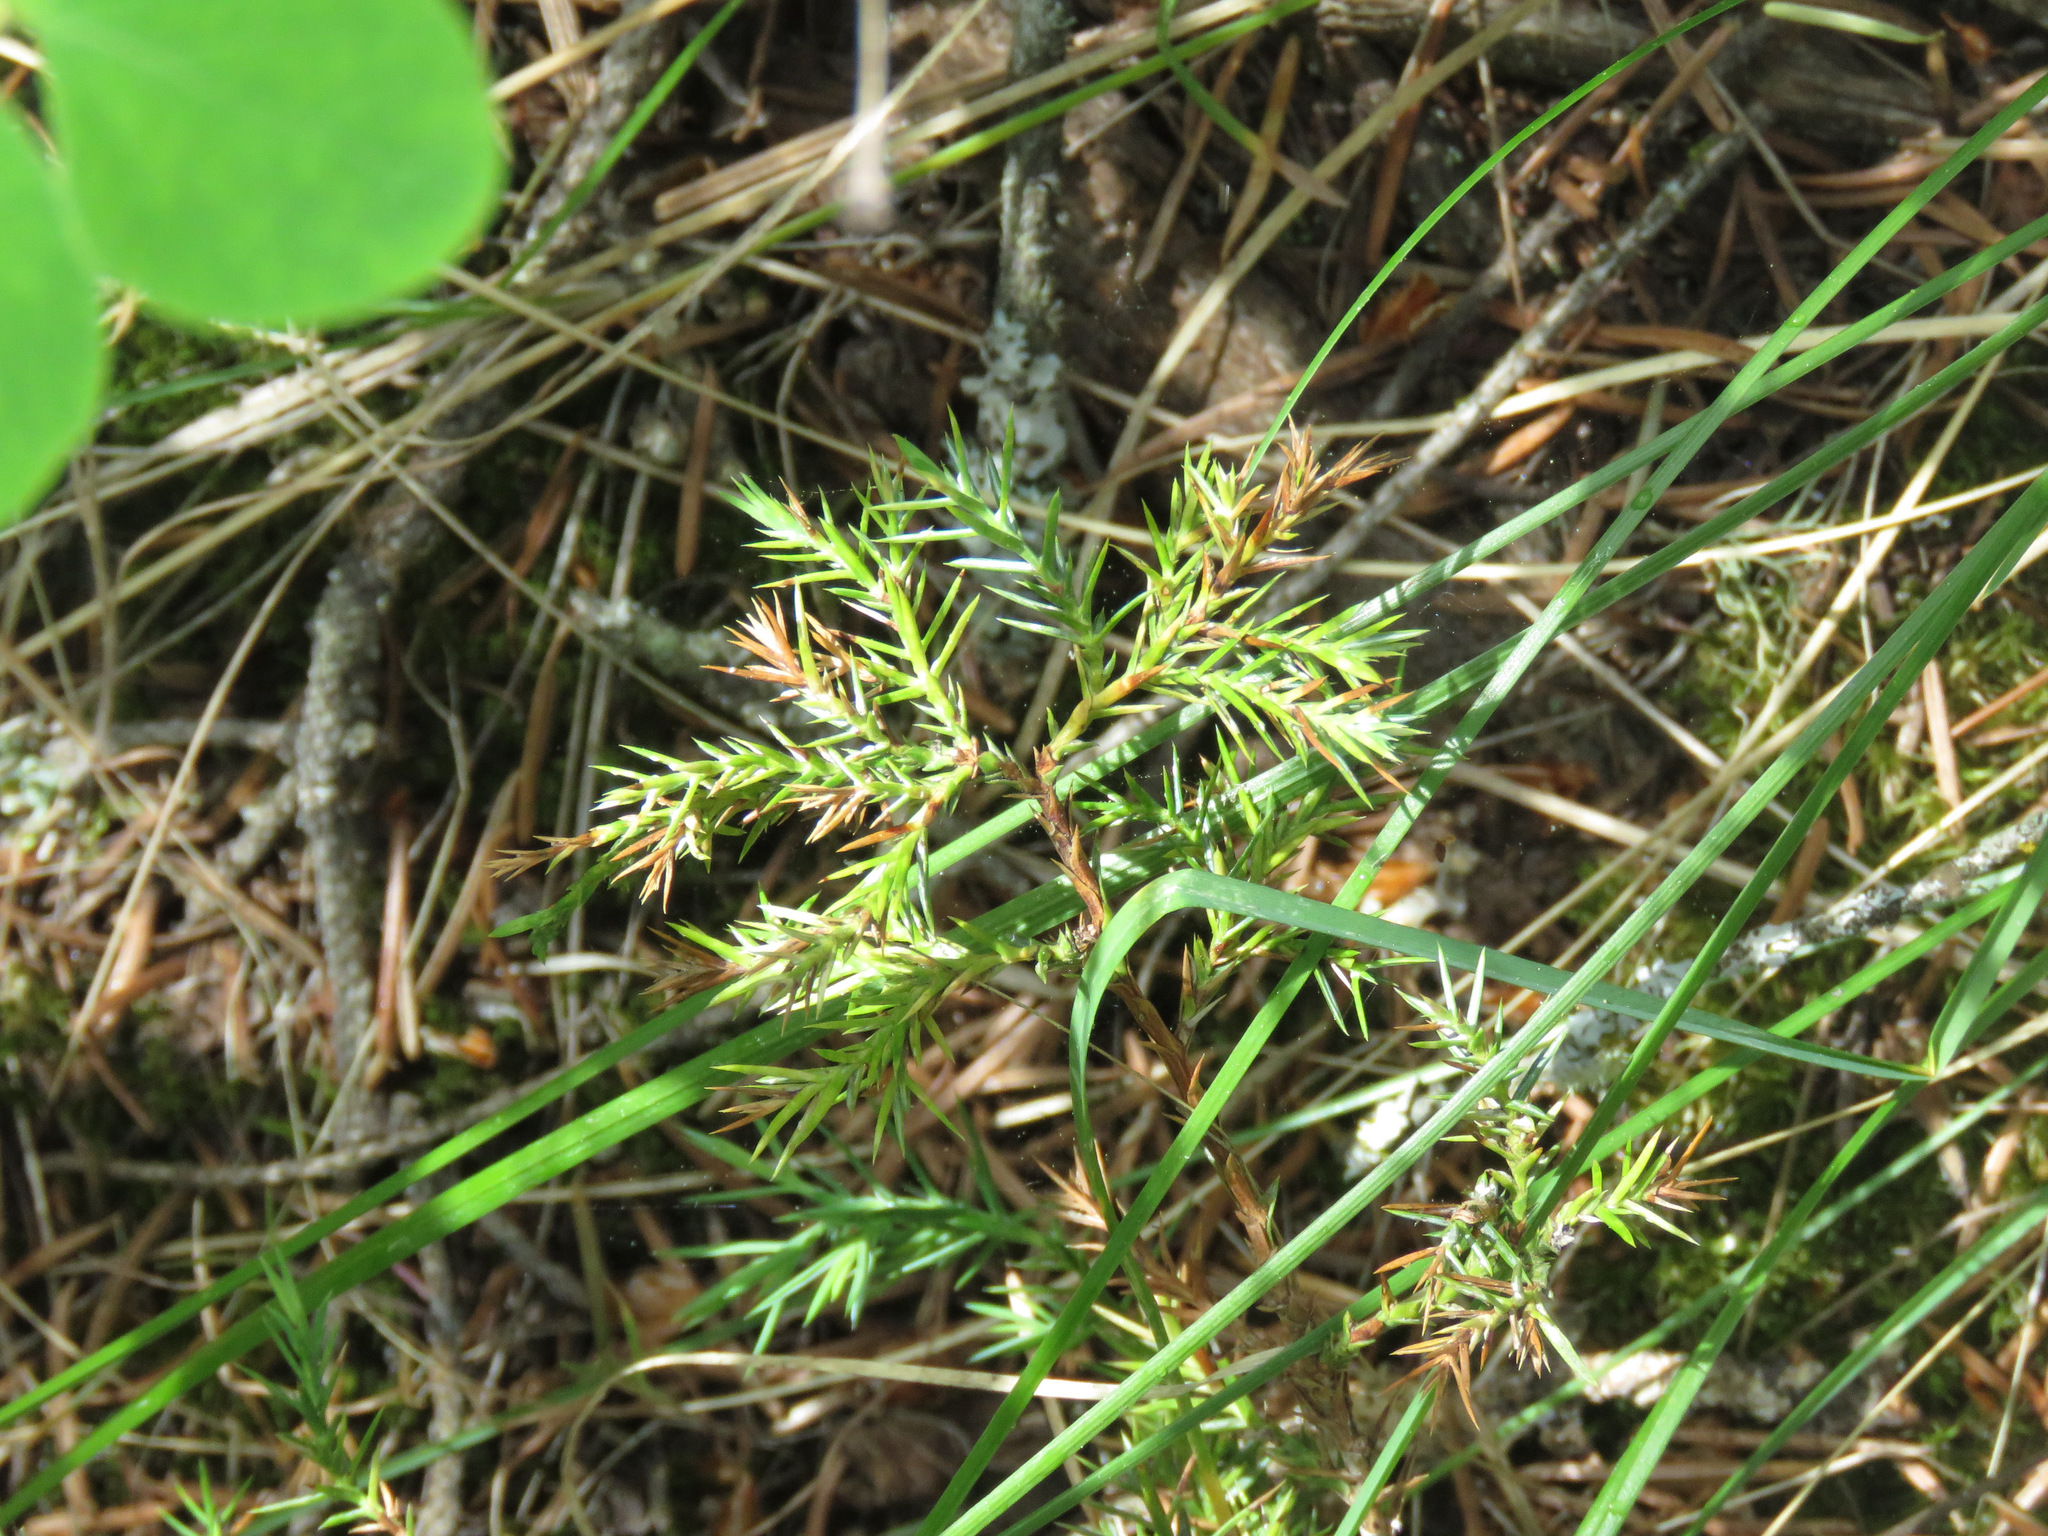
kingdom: Plantae
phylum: Tracheophyta
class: Pinopsida
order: Pinales
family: Cupressaceae
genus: Juniperus
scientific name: Juniperus communis
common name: Common juniper
